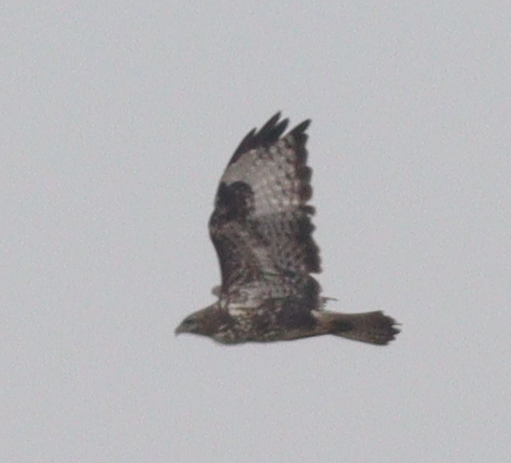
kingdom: Animalia
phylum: Chordata
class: Aves
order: Accipitriformes
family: Accipitridae
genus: Buteo
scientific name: Buteo buteo
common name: Common buzzard
